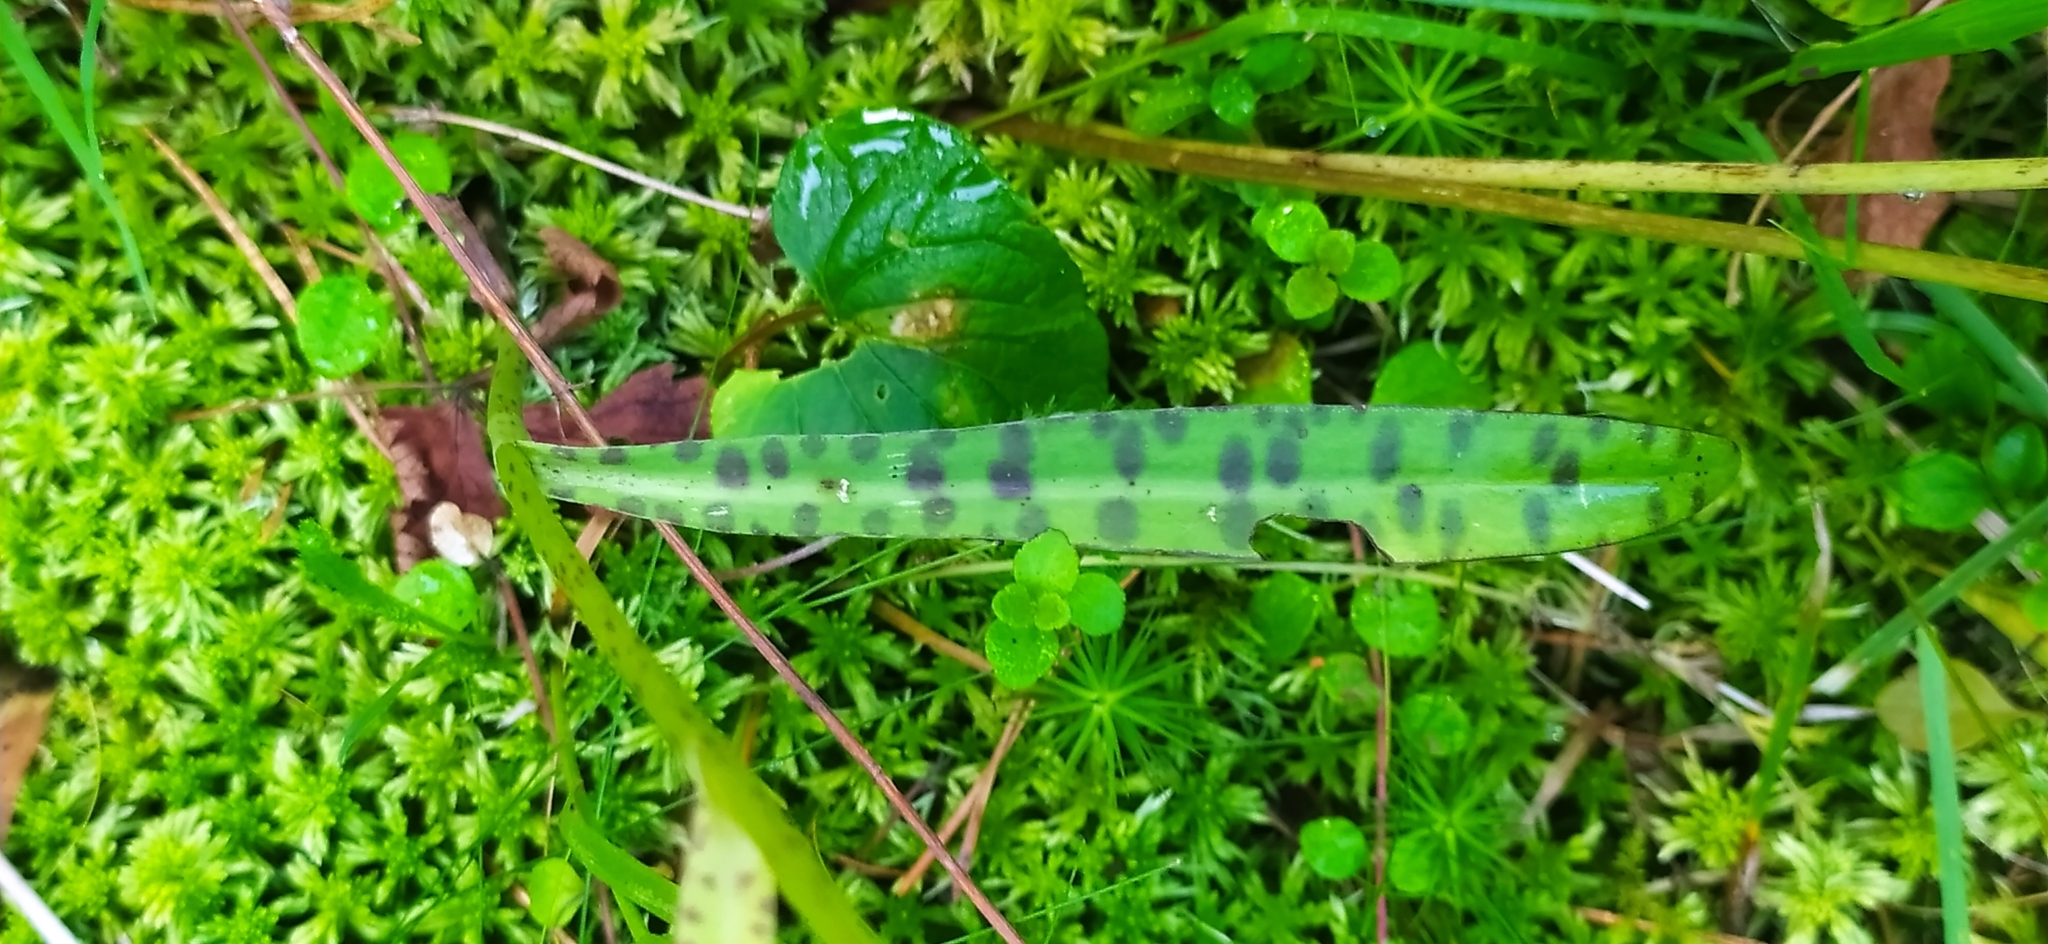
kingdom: Plantae
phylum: Tracheophyta
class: Liliopsida
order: Asparagales
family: Orchidaceae
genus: Dactylorhiza
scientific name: Dactylorhiza maculata
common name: Heath spotted-orchid
